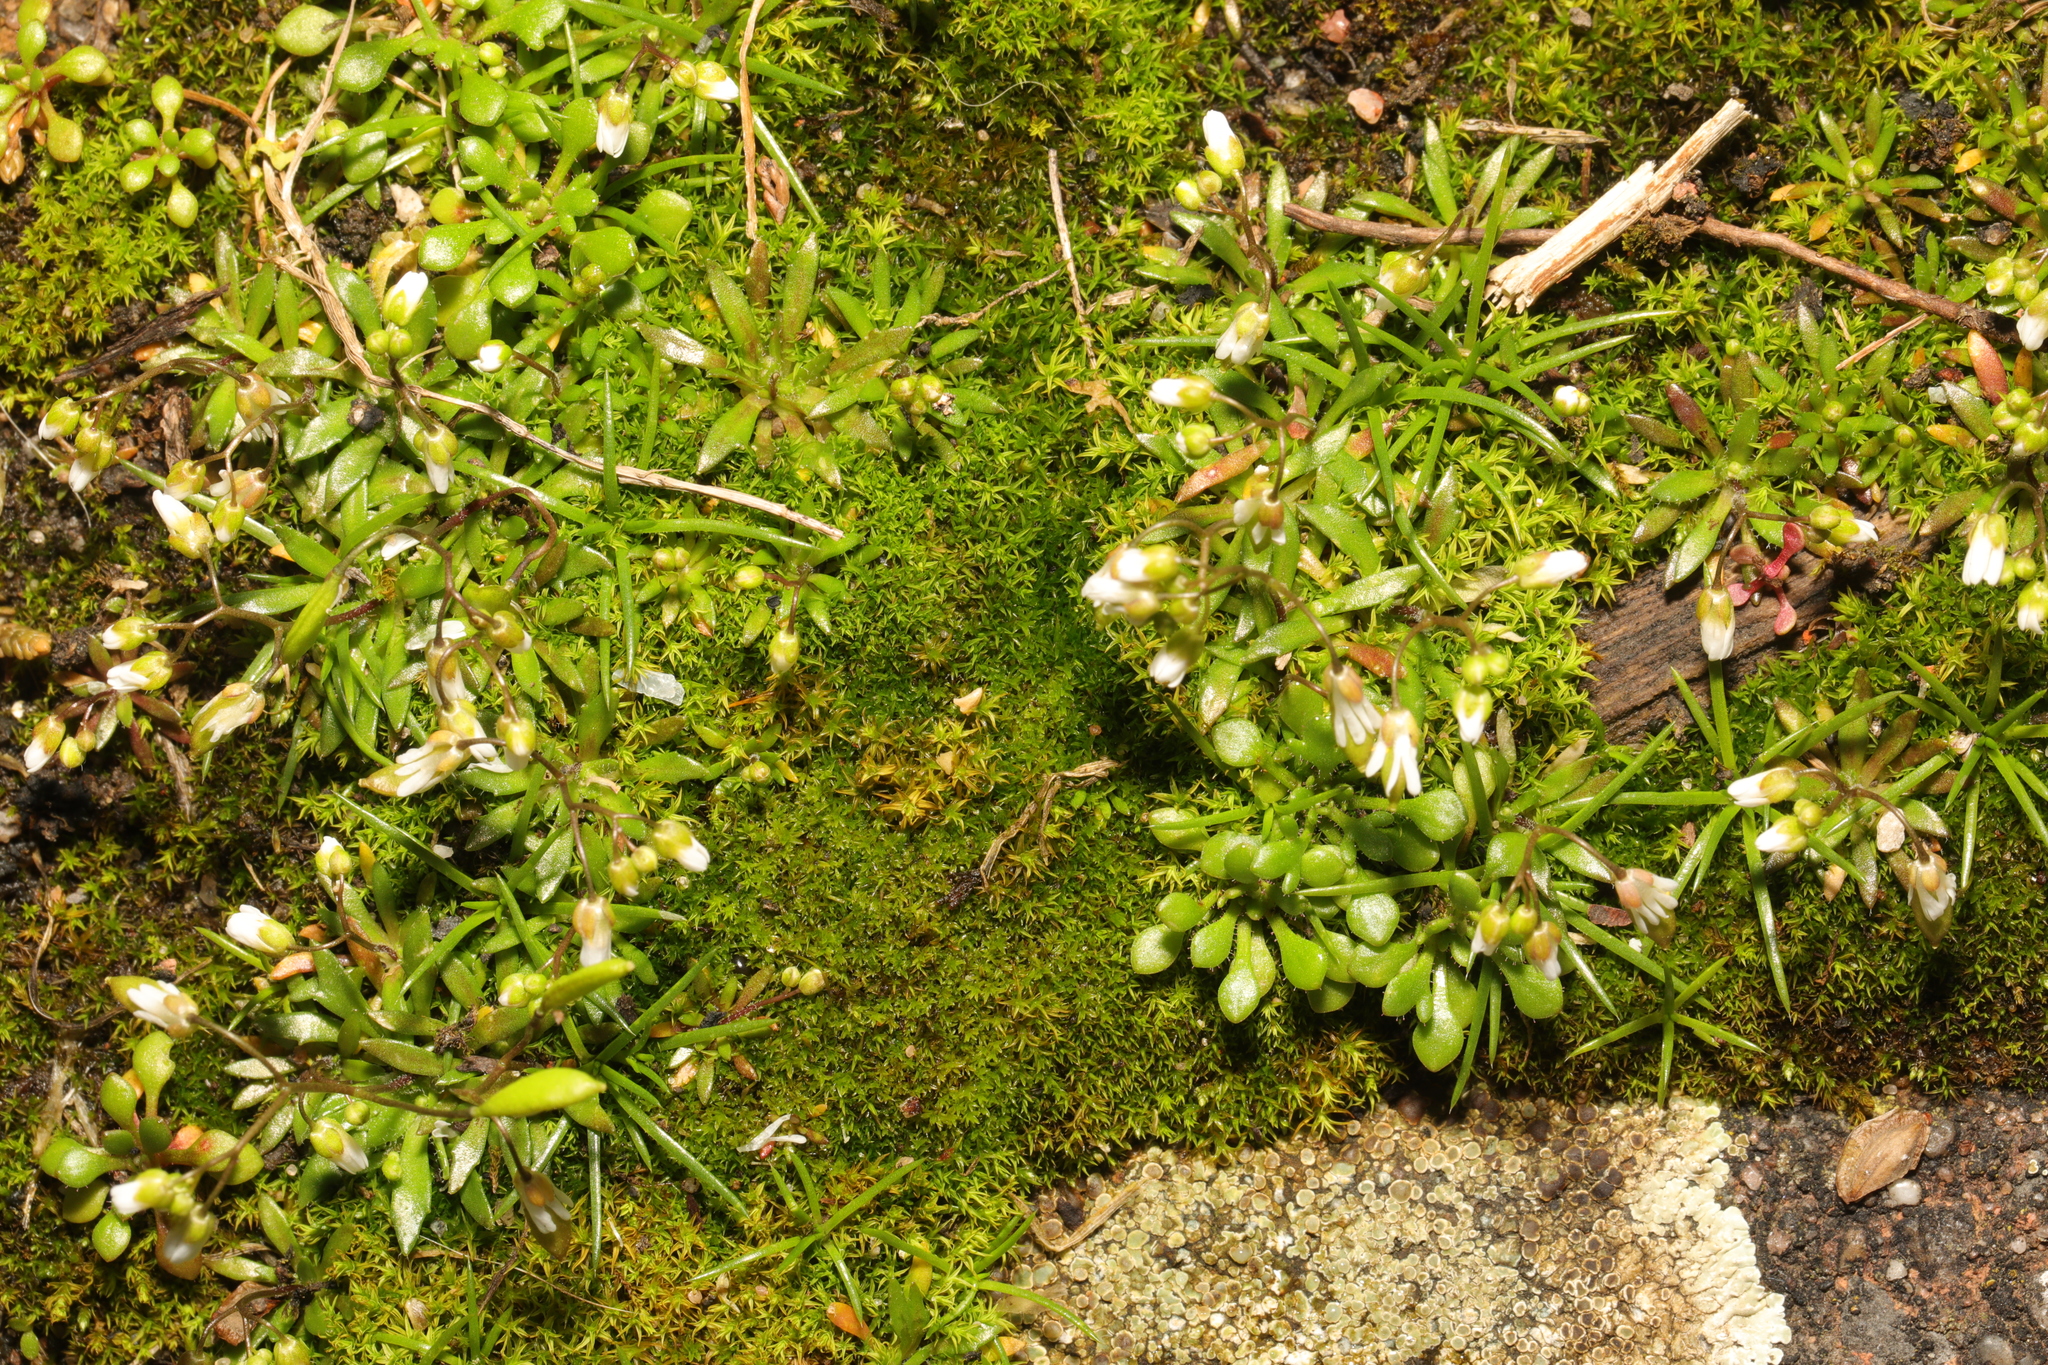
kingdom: Plantae
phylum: Tracheophyta
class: Magnoliopsida
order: Brassicales
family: Brassicaceae
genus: Draba
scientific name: Draba verna
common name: Spring draba
